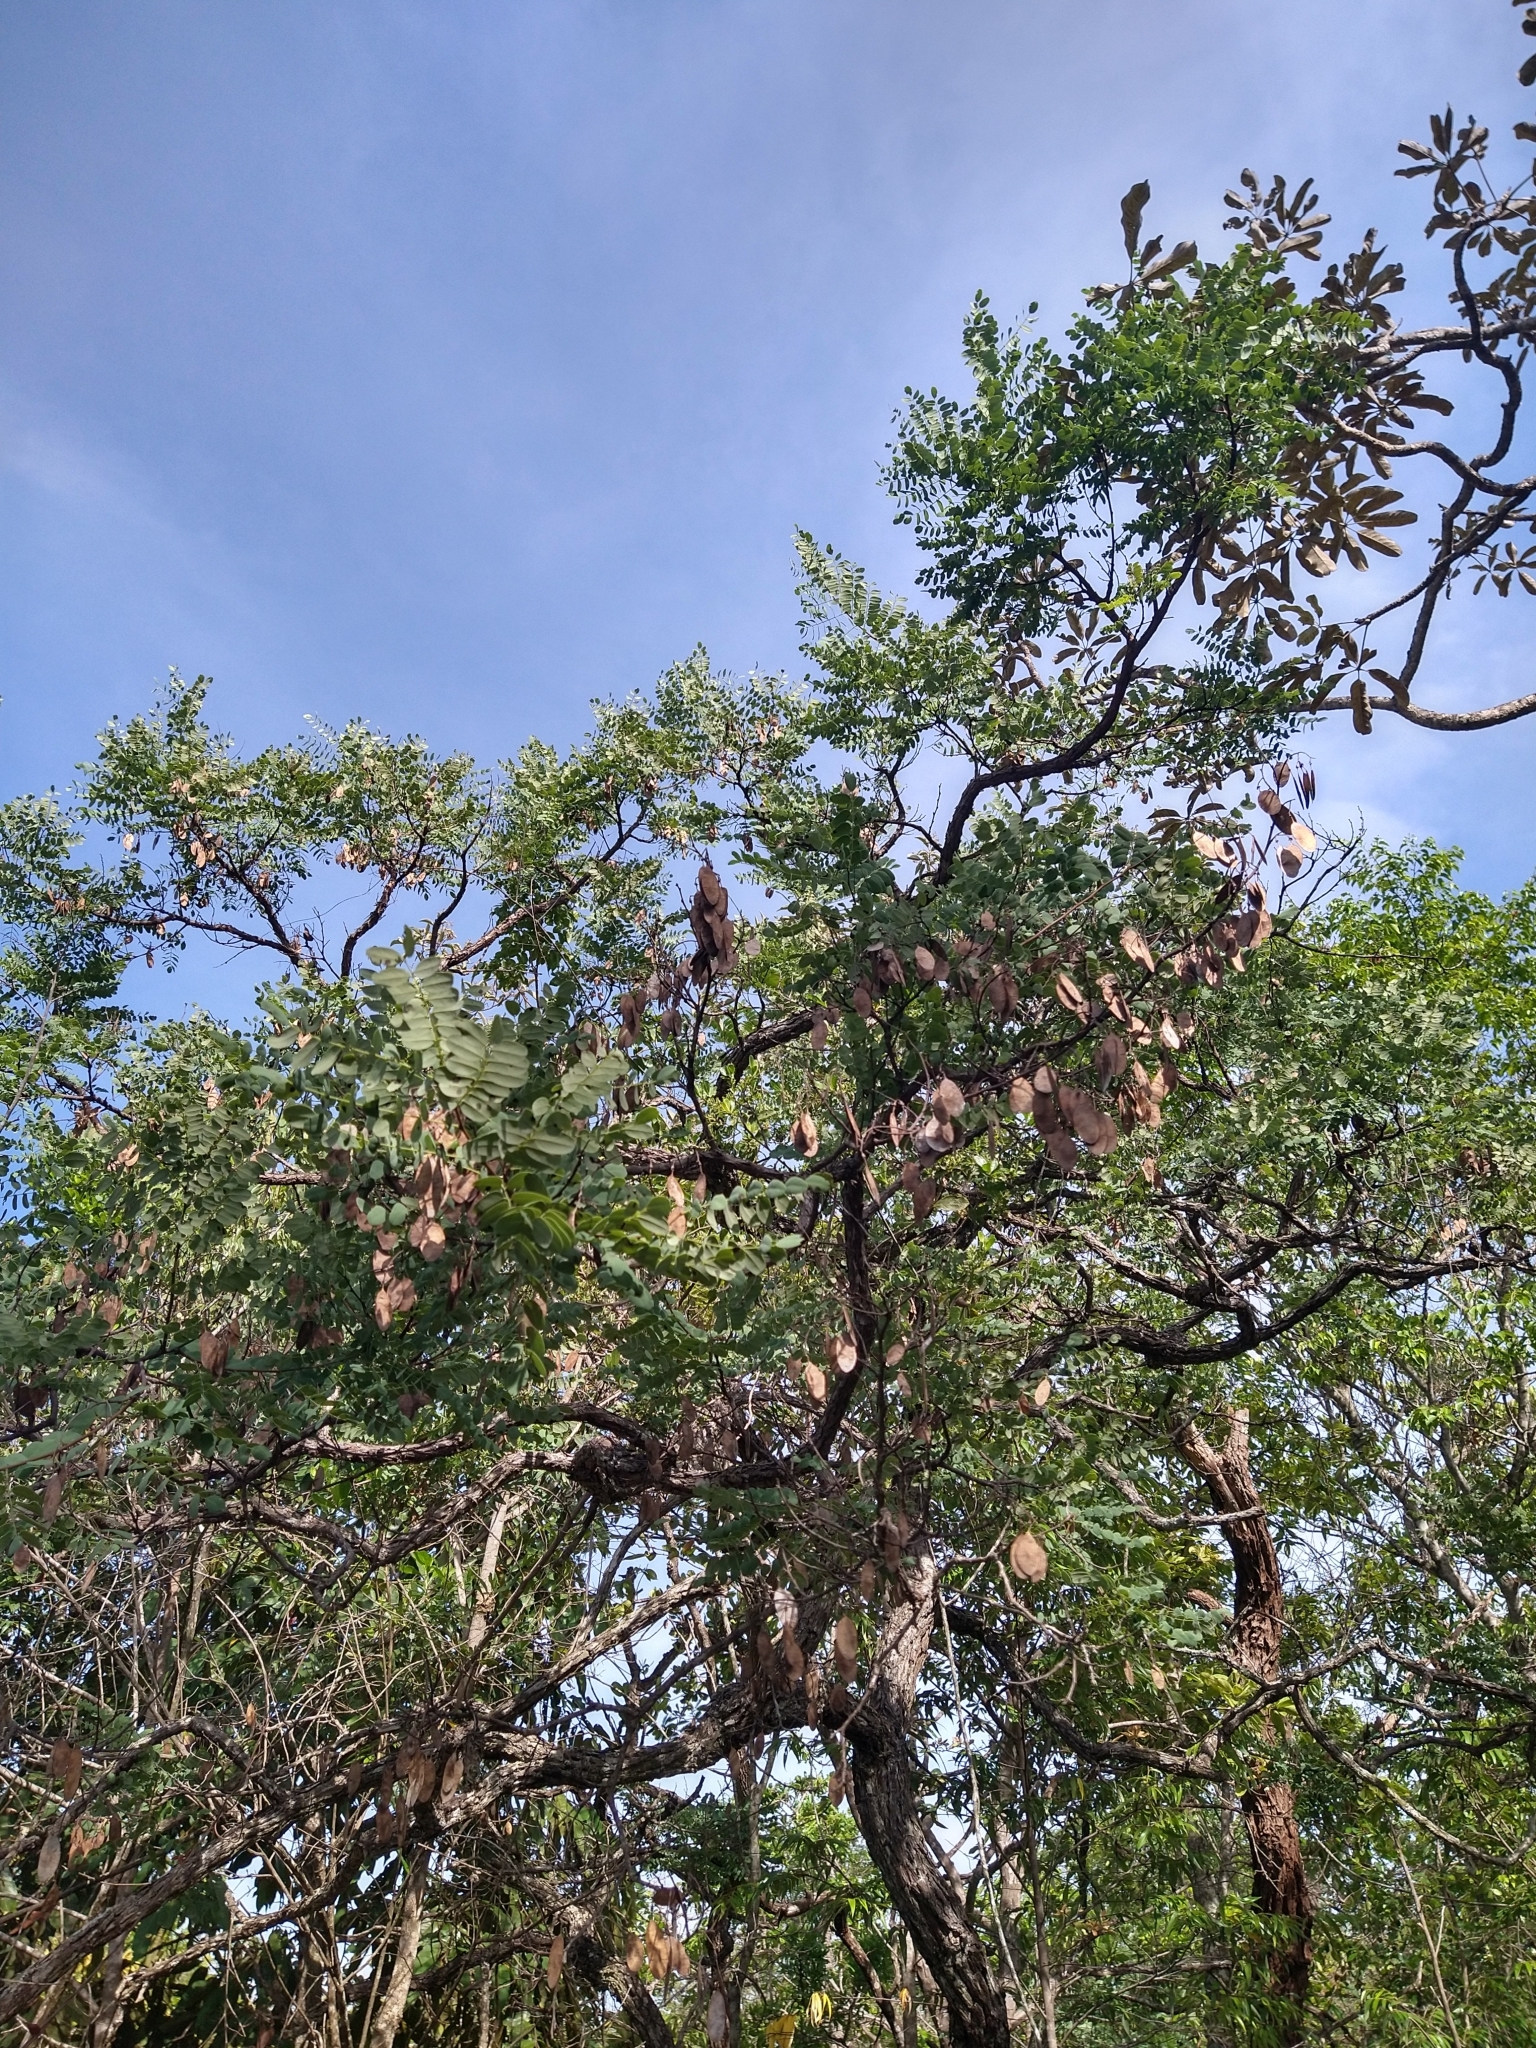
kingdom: Plantae
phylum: Tracheophyta
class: Magnoliopsida
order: Fabales
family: Fabaceae
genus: Dalbergia
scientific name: Dalbergia miscolobium
